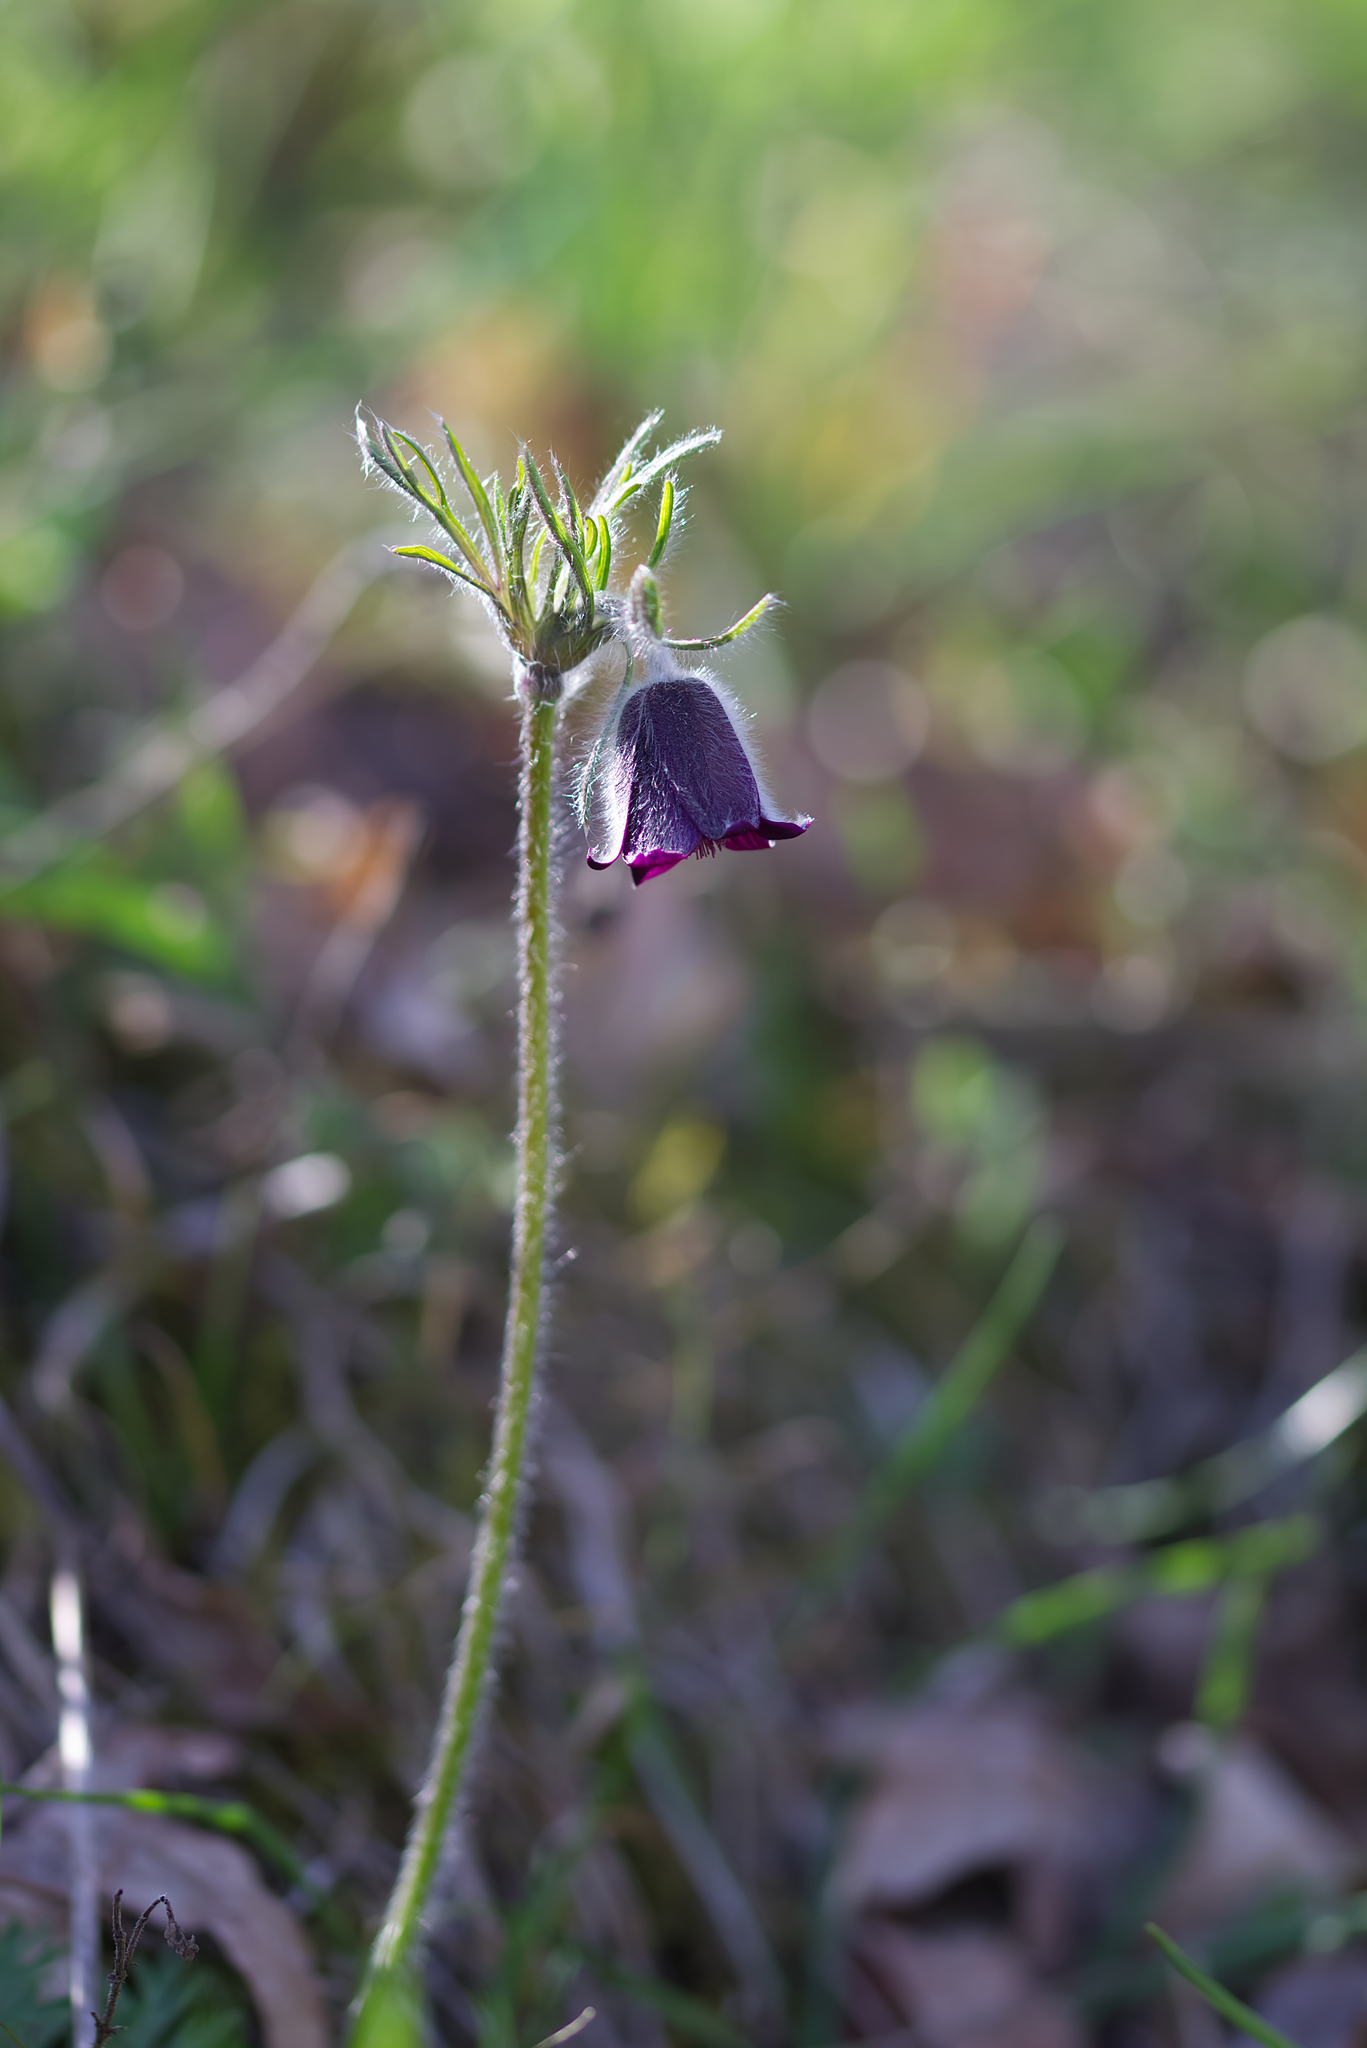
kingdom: Plantae
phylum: Tracheophyta
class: Magnoliopsida
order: Ranunculales
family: Ranunculaceae
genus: Pulsatilla
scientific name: Pulsatilla pratensis
